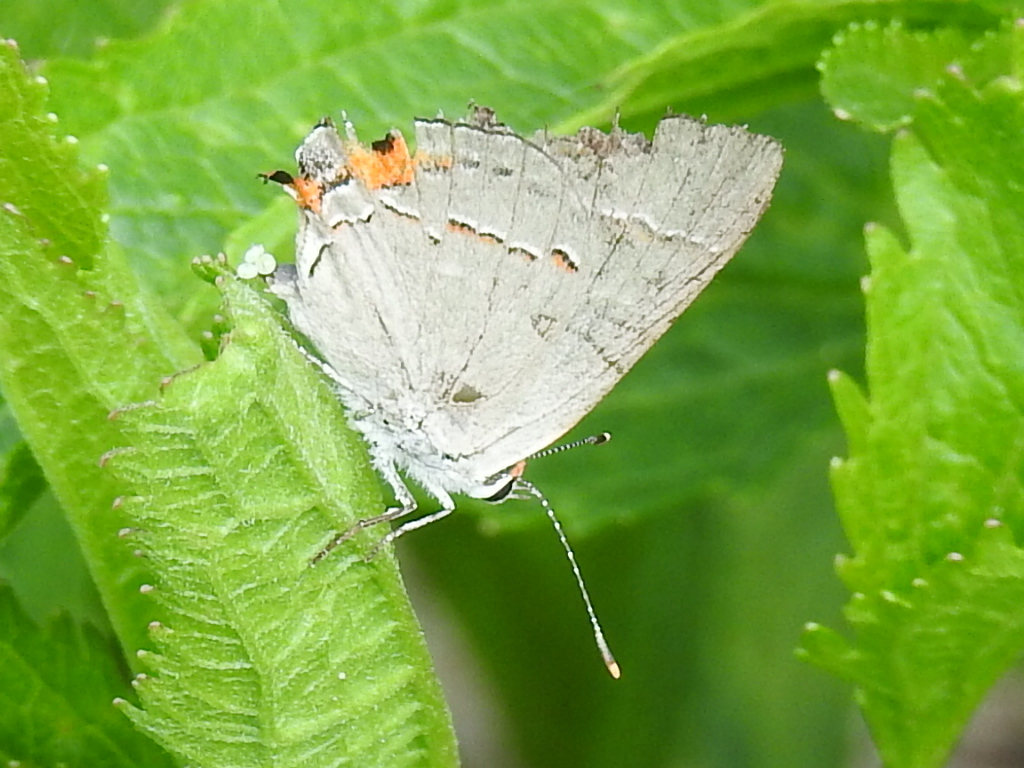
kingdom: Animalia
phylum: Arthropoda
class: Insecta
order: Lepidoptera
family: Lycaenidae
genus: Strymon
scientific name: Strymon melinus
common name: Gray hairstreak
